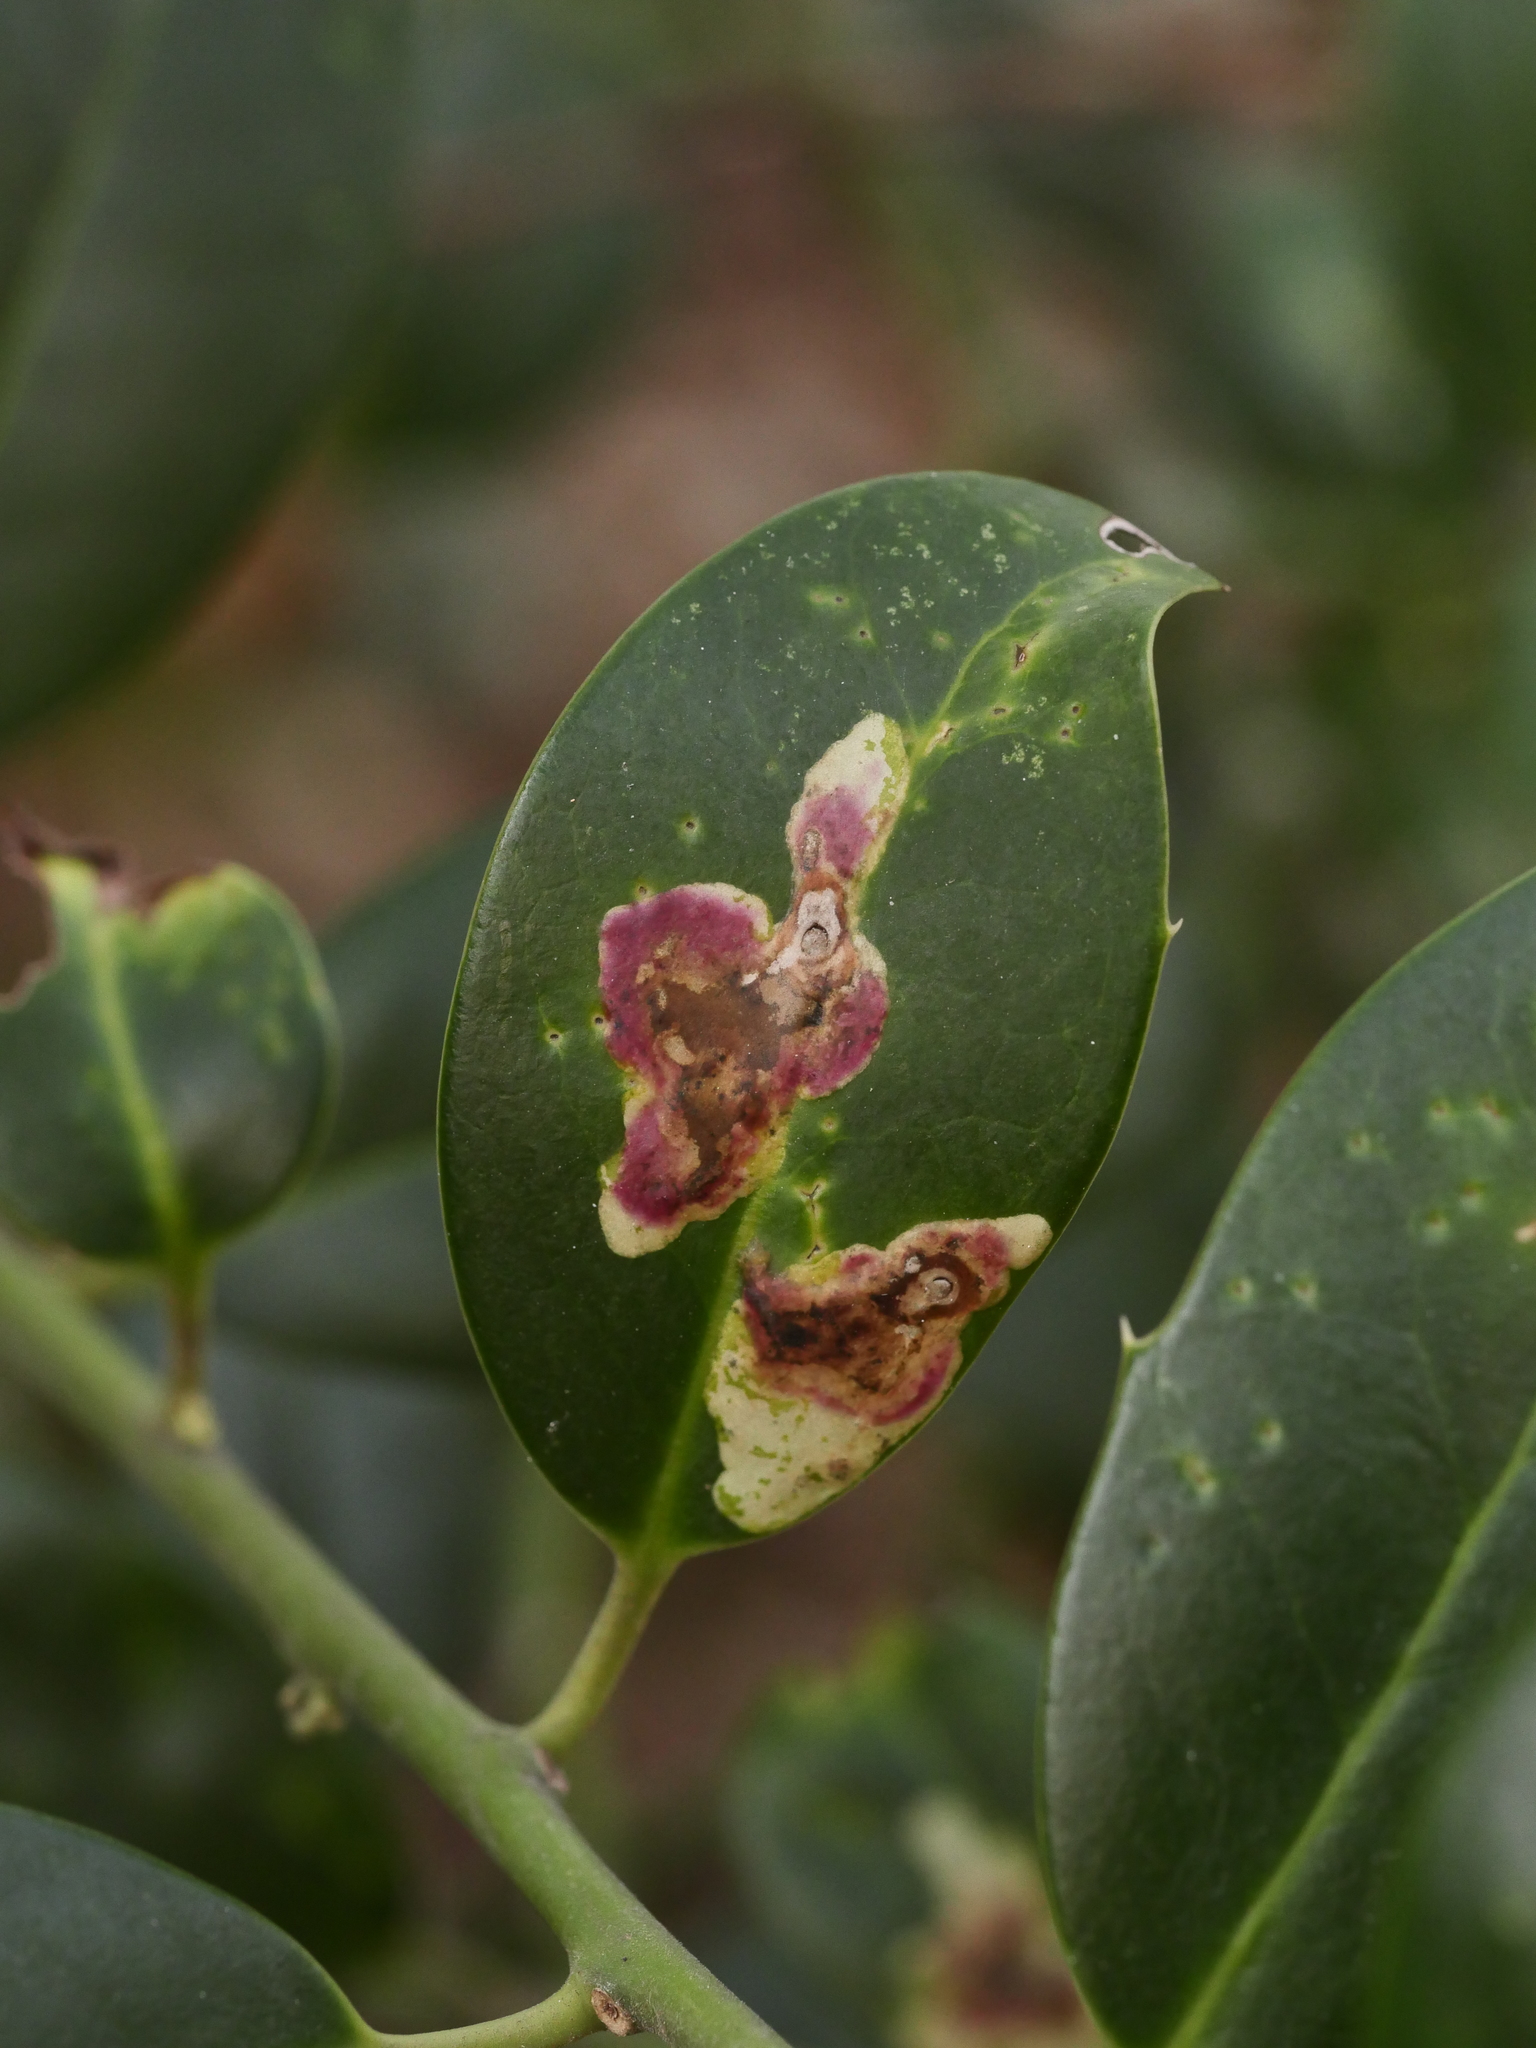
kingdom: Animalia
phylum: Arthropoda
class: Insecta
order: Diptera
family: Agromyzidae
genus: Phytomyza
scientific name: Phytomyza ilicis
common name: Holly leafminer
